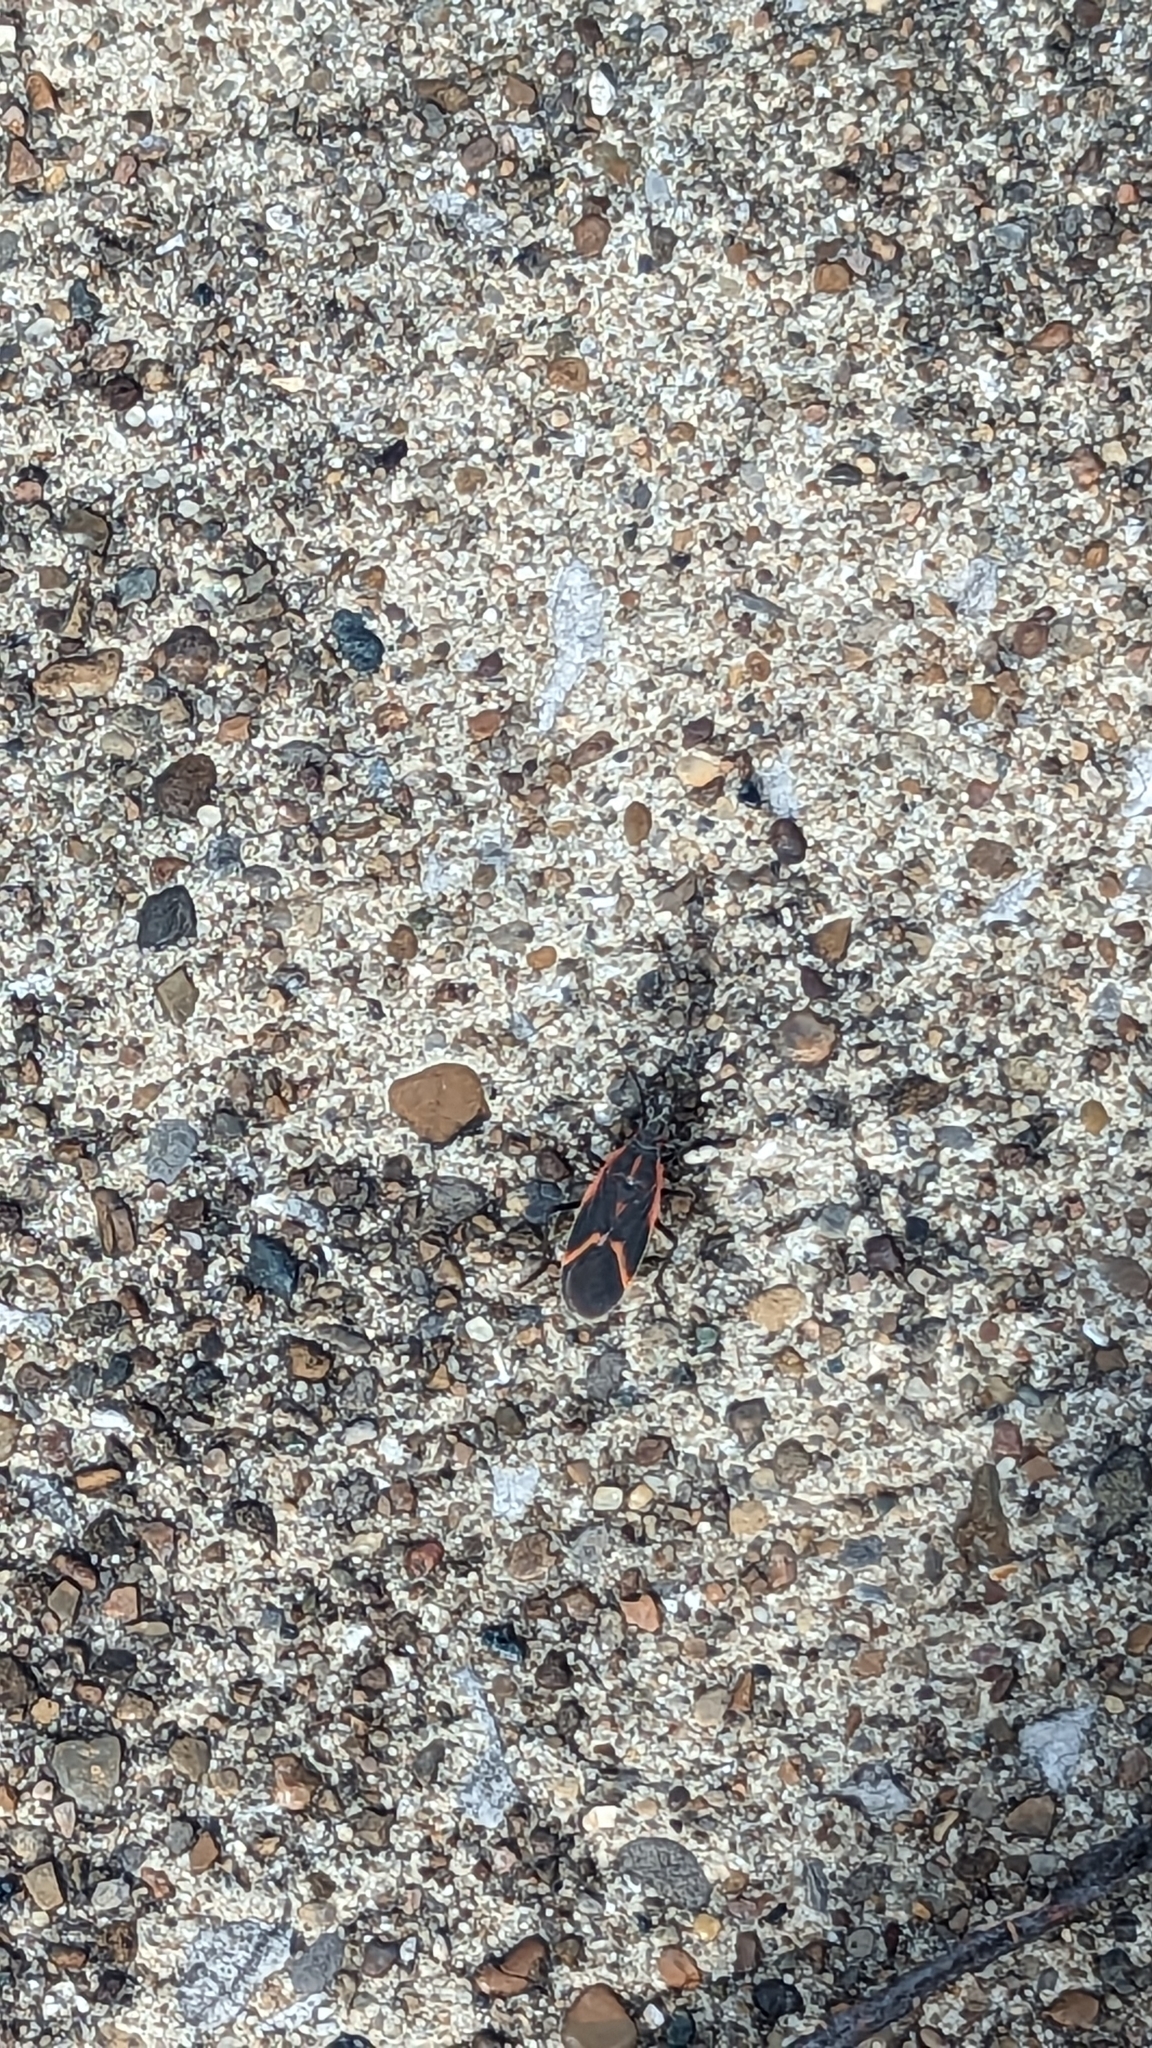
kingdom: Animalia
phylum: Arthropoda
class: Insecta
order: Hemiptera
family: Rhopalidae
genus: Boisea
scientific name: Boisea trivittata
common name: Boxelder bug
